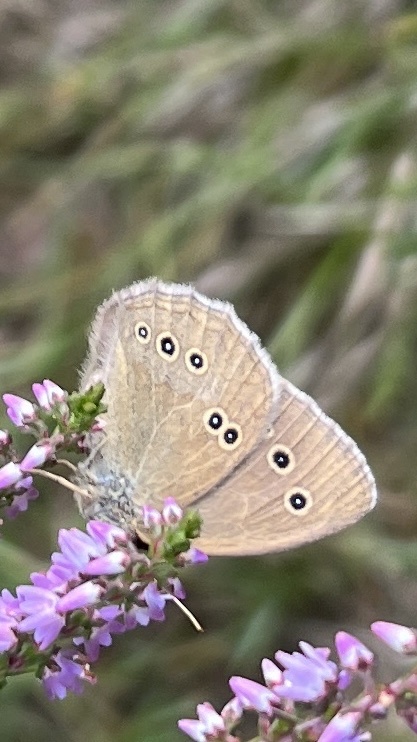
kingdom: Animalia
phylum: Arthropoda
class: Insecta
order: Lepidoptera
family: Nymphalidae
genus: Aphantopus
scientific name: Aphantopus hyperantus
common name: Ringlet
